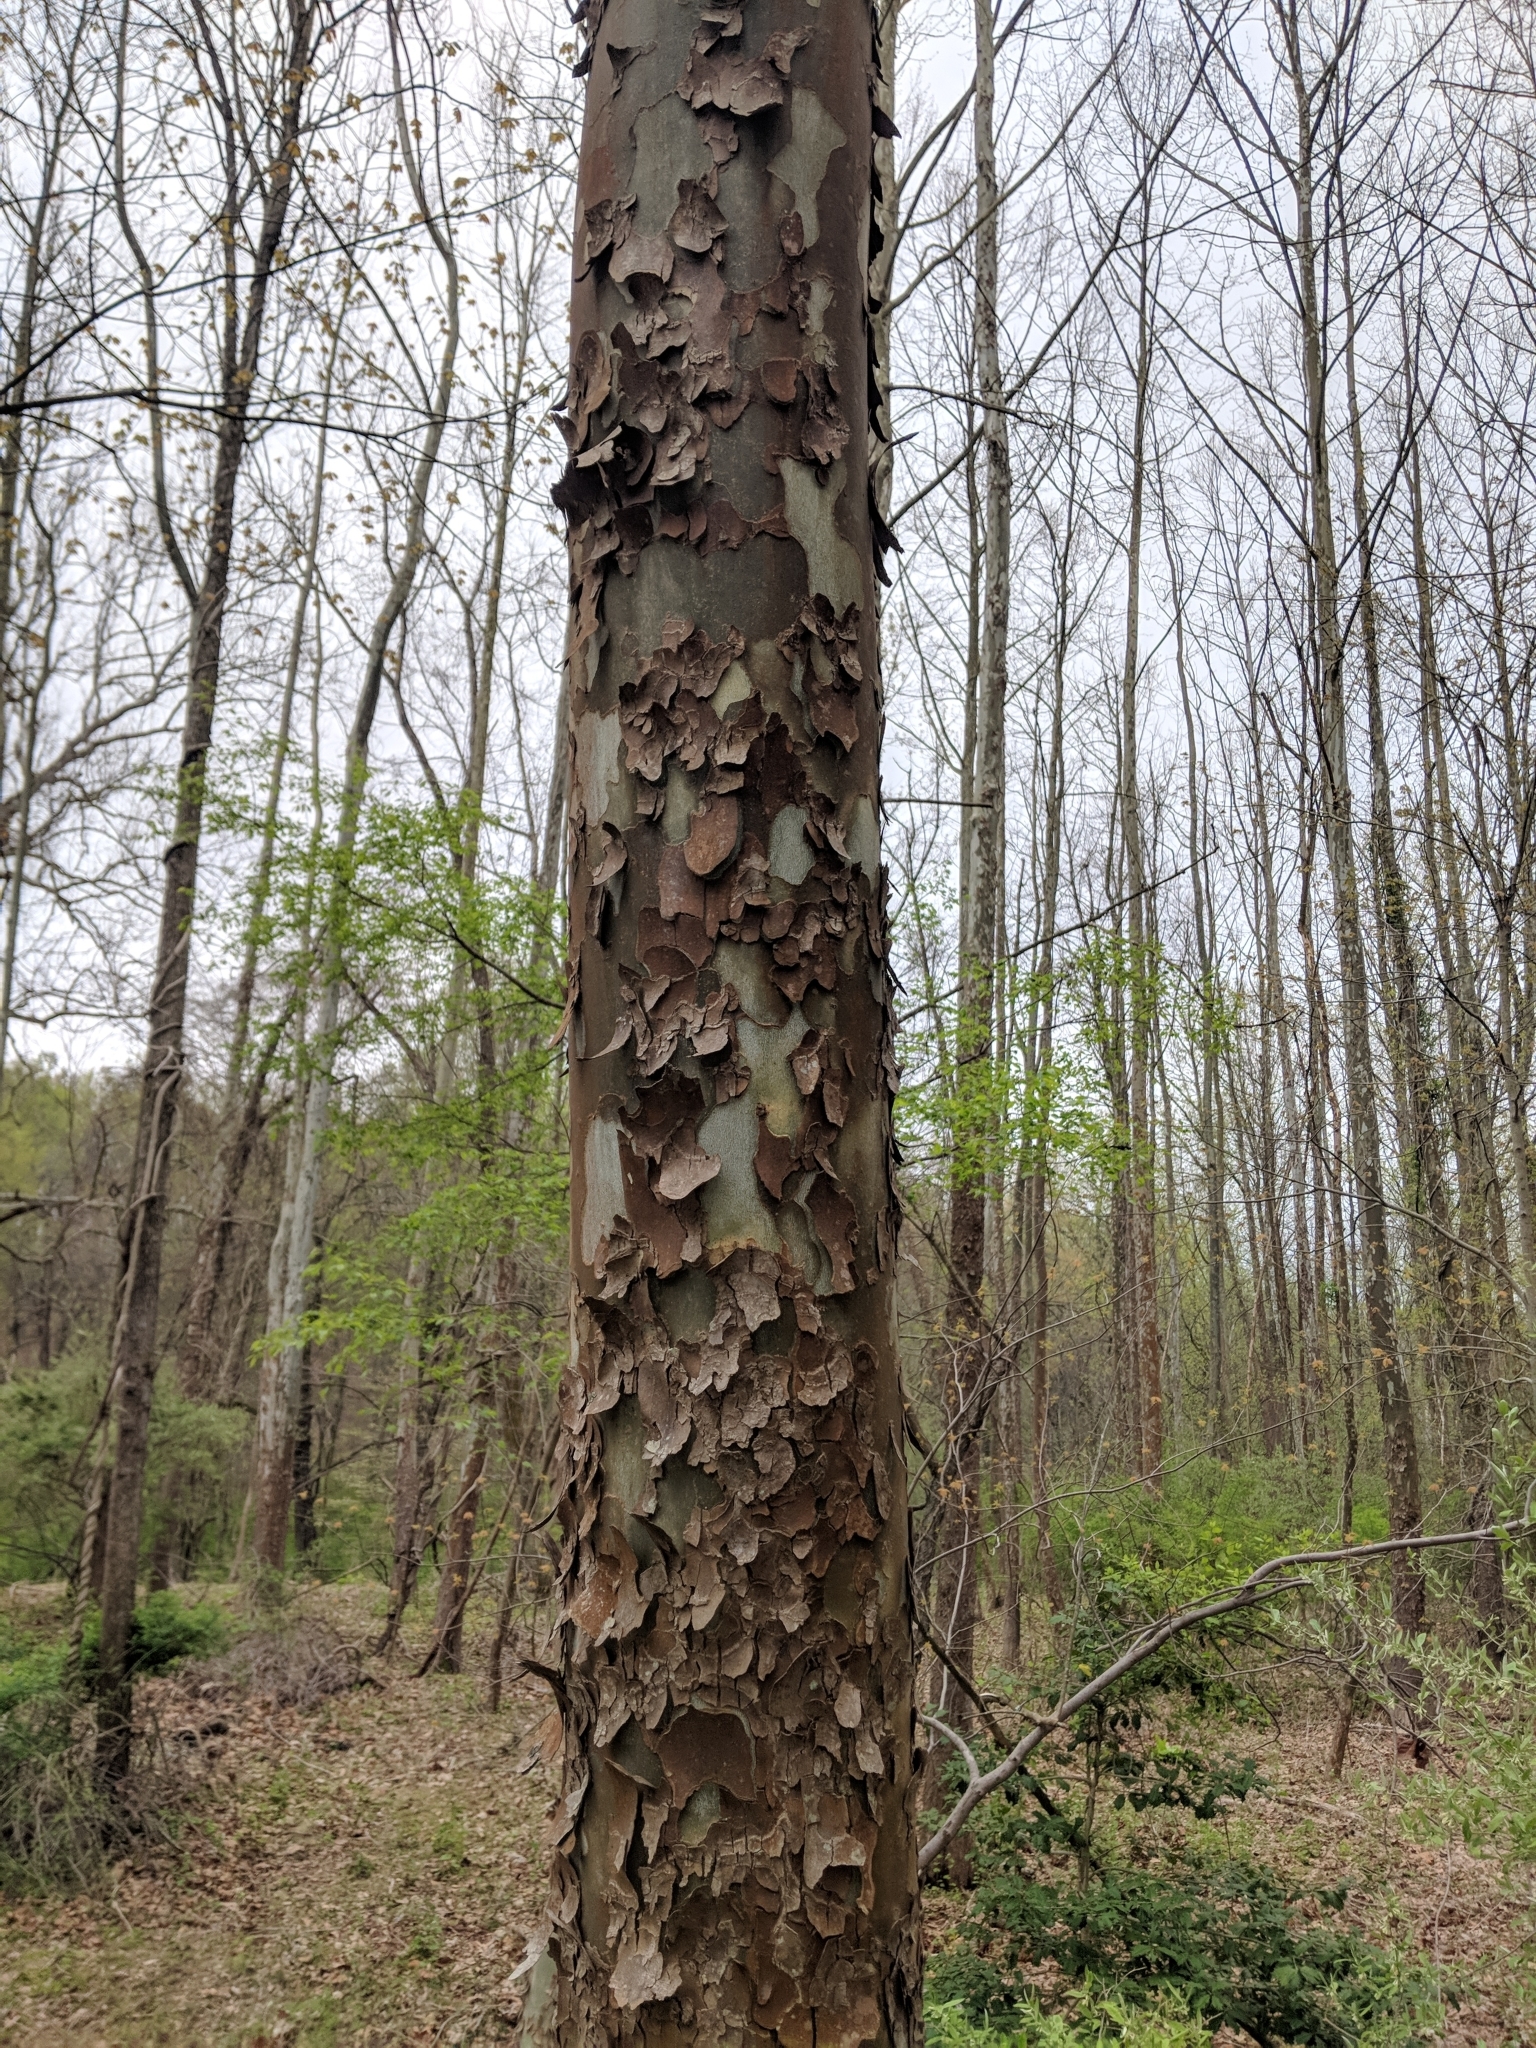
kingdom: Plantae
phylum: Tracheophyta
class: Magnoliopsida
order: Proteales
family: Platanaceae
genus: Platanus
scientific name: Platanus occidentalis
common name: American sycamore
